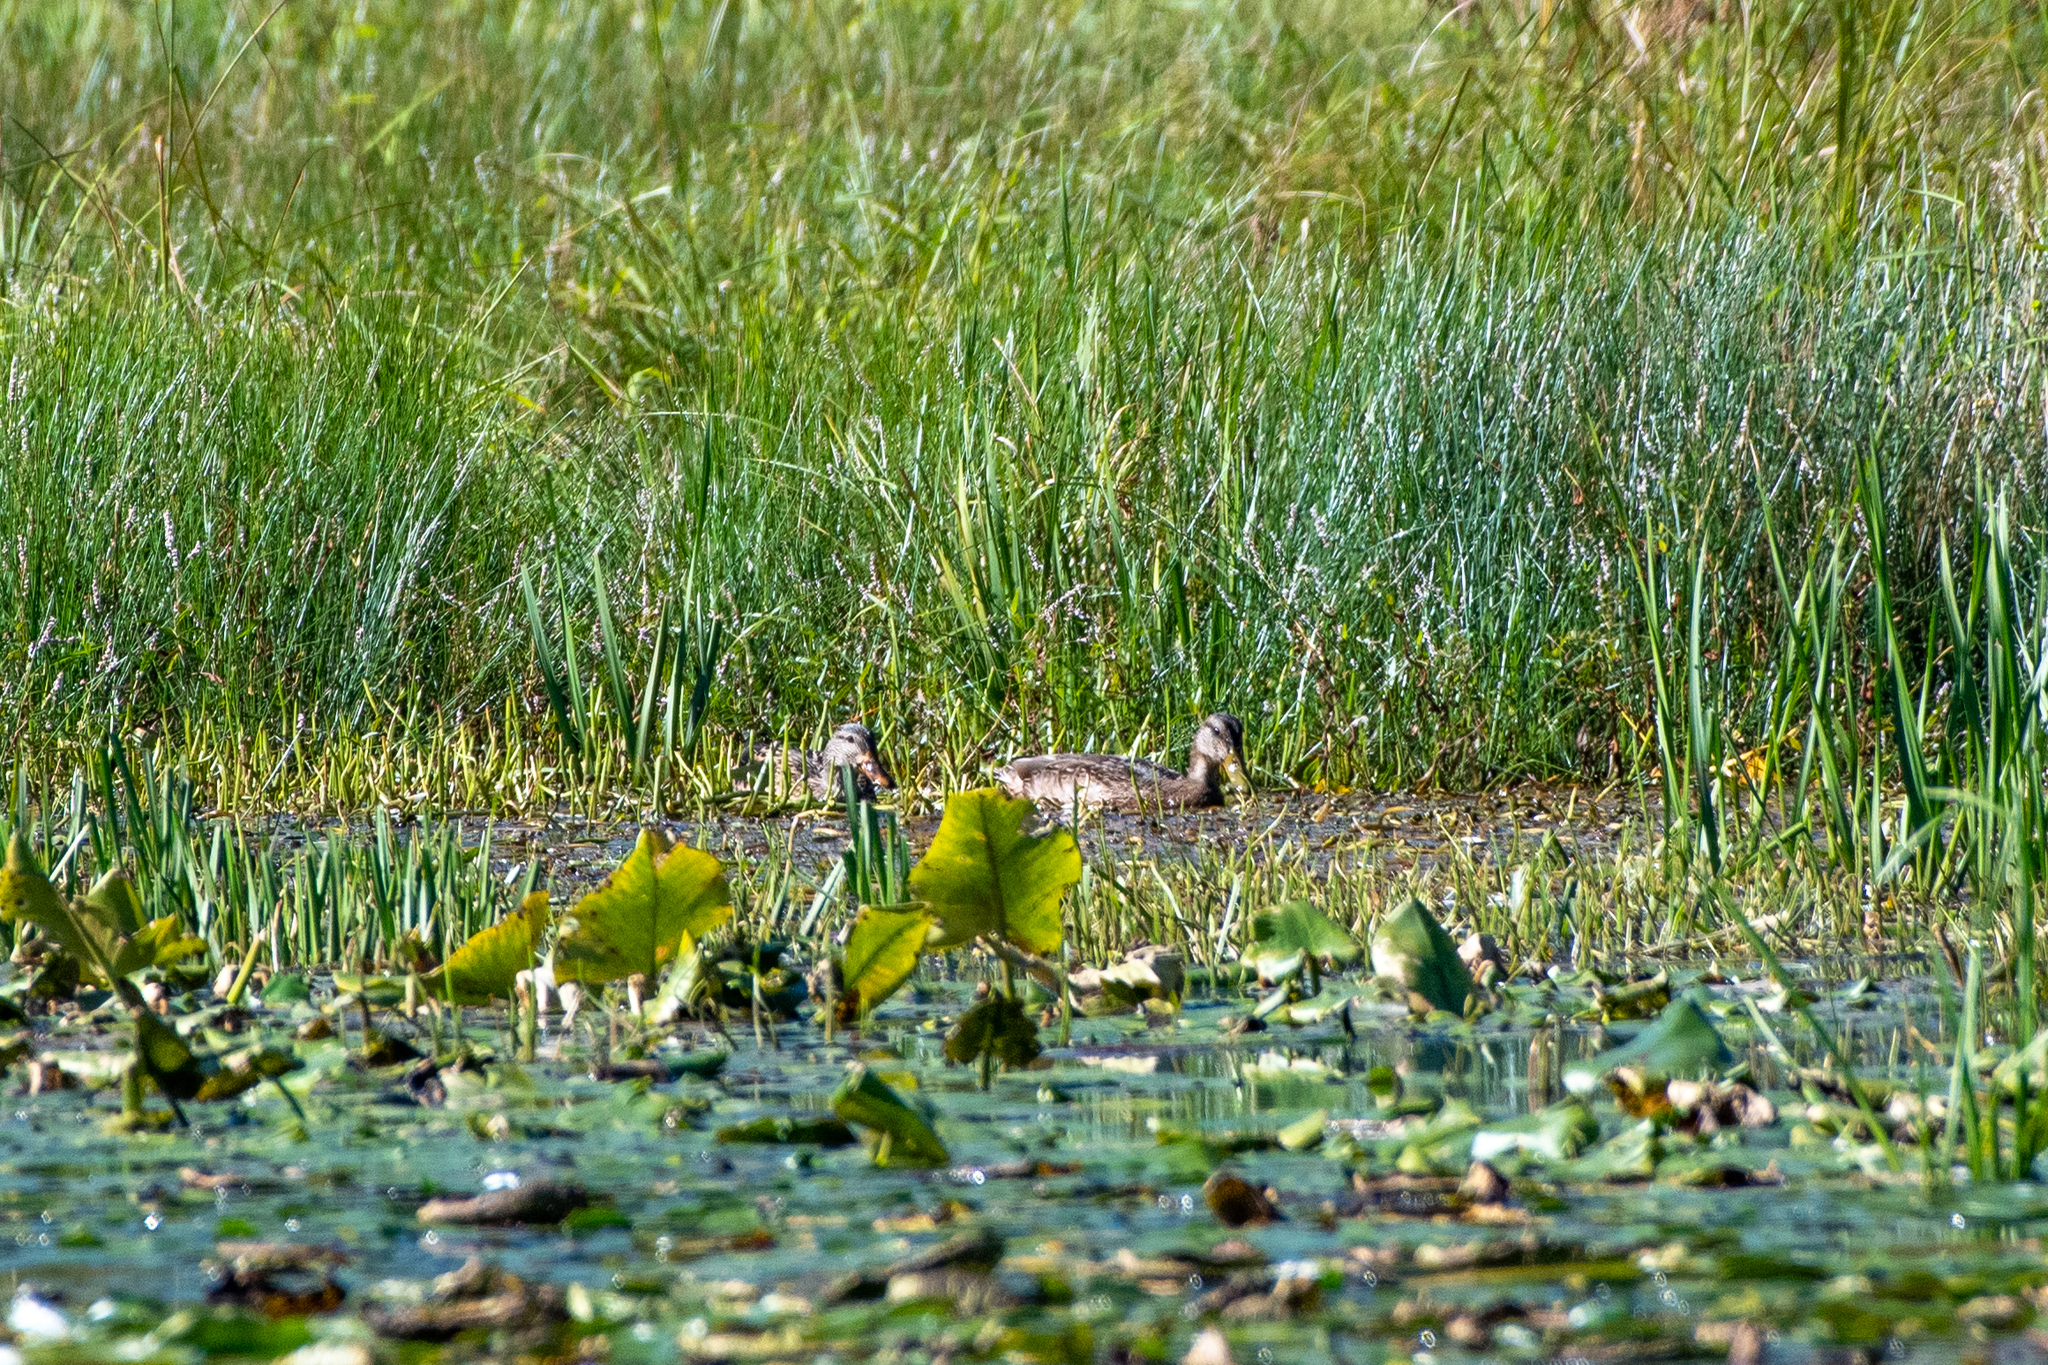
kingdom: Animalia
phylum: Chordata
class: Aves
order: Anseriformes
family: Anatidae
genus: Anas
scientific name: Anas platyrhynchos
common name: Mallard
